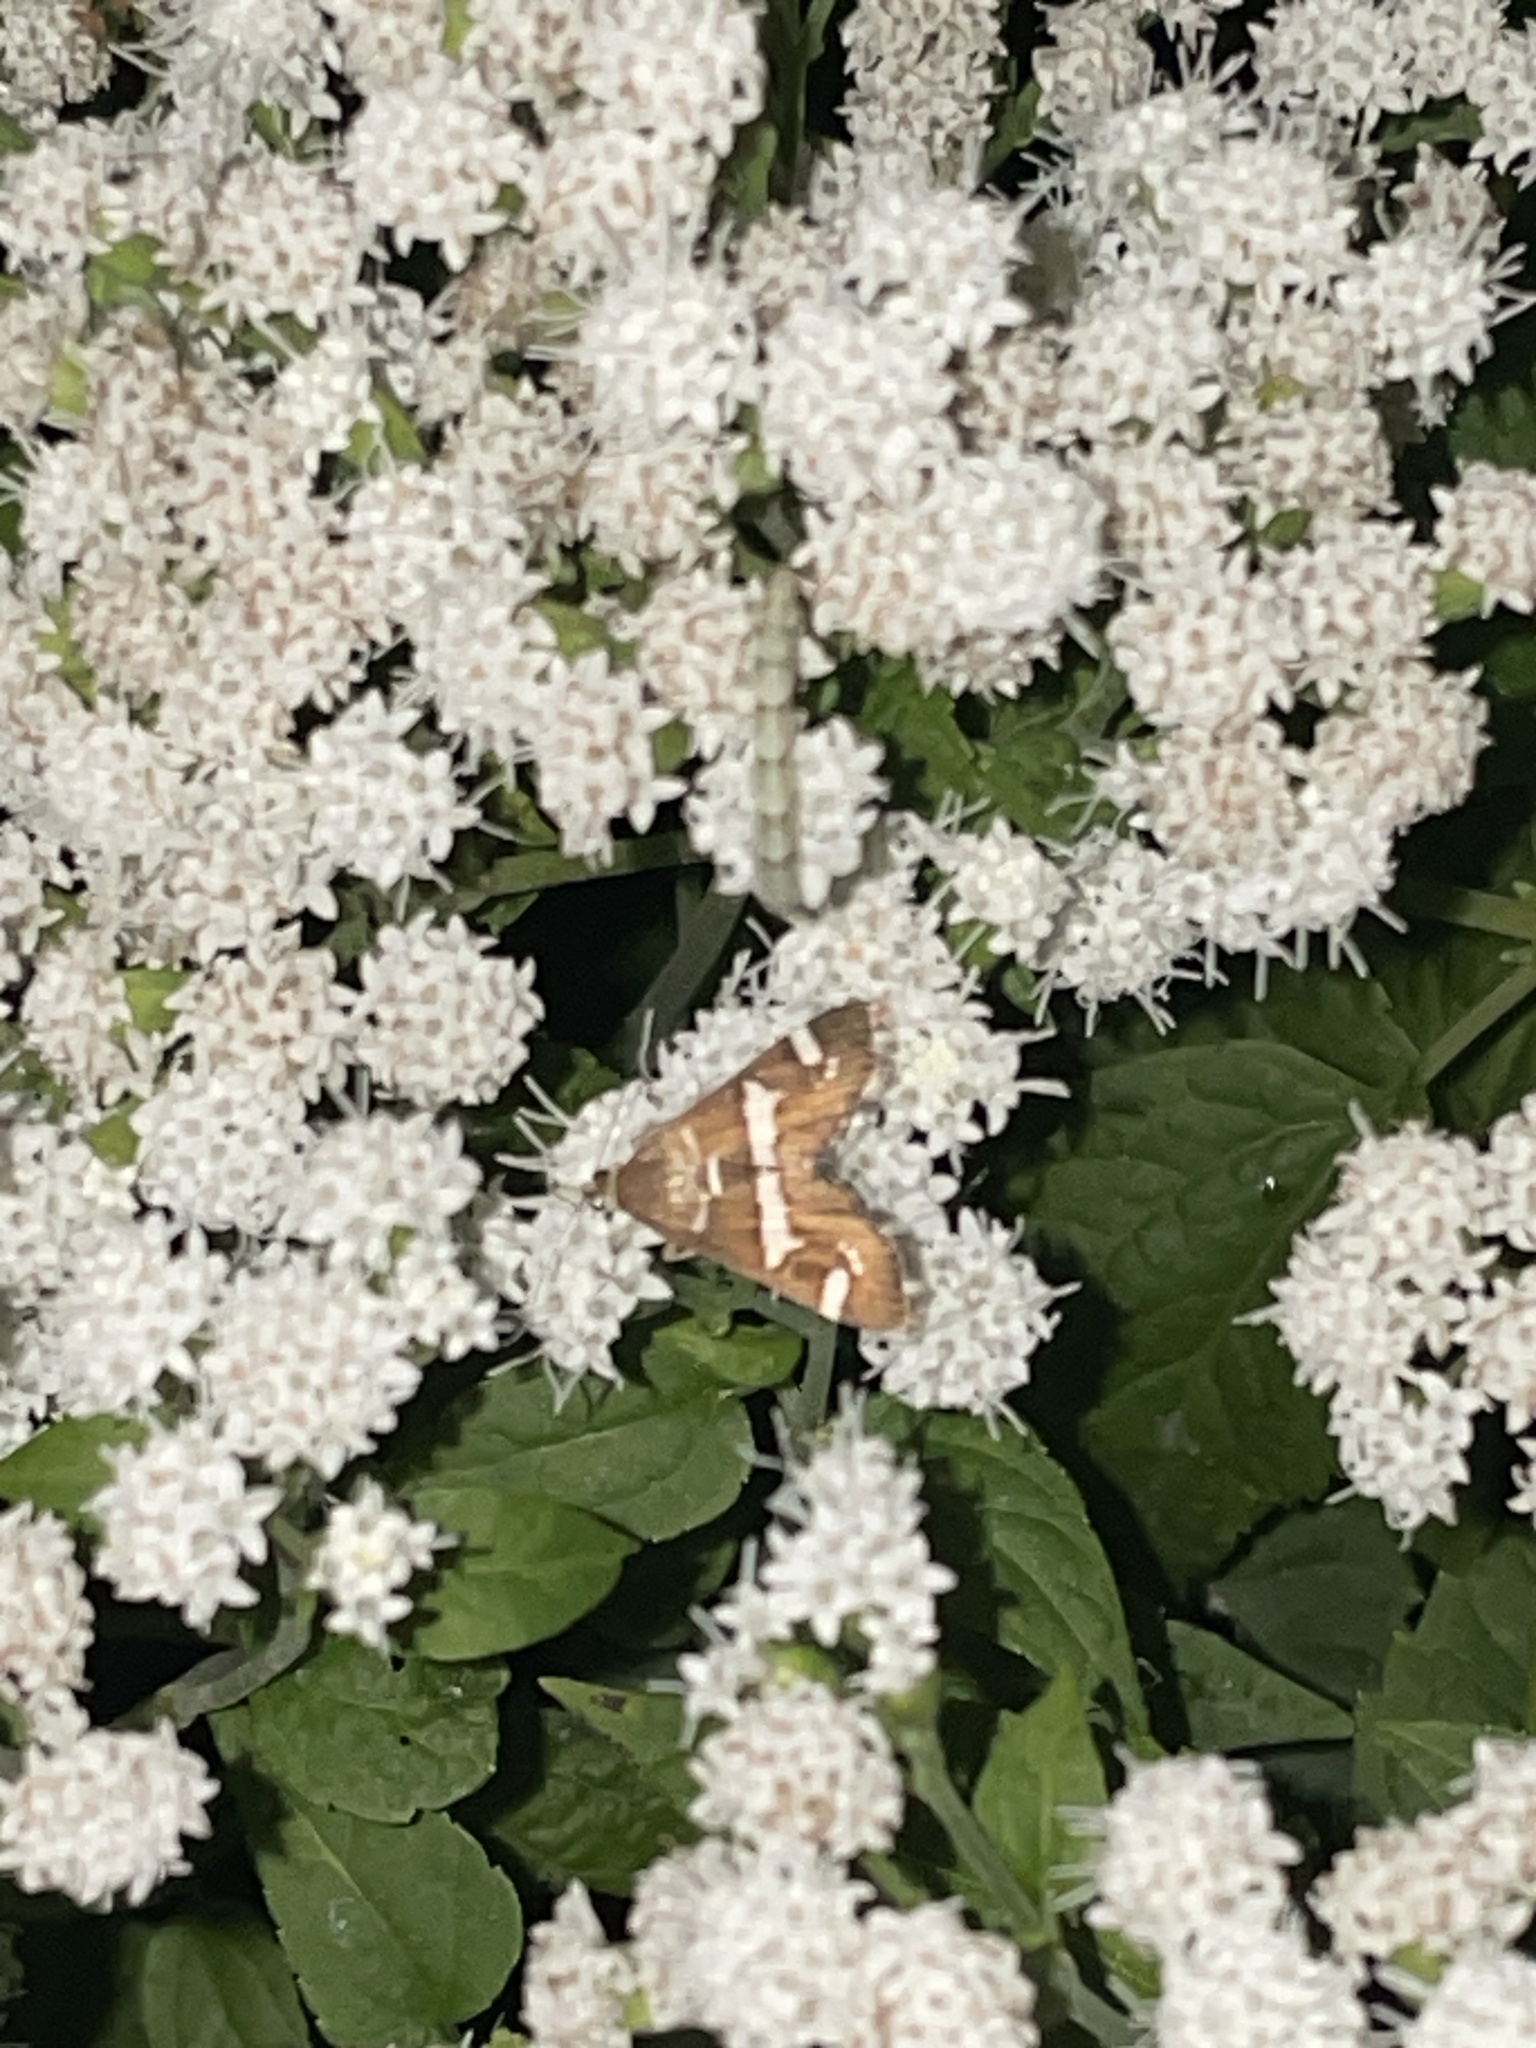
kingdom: Animalia
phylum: Arthropoda
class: Insecta
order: Lepidoptera
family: Crambidae
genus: Spoladea
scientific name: Spoladea recurvalis
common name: Beet webworm moth
